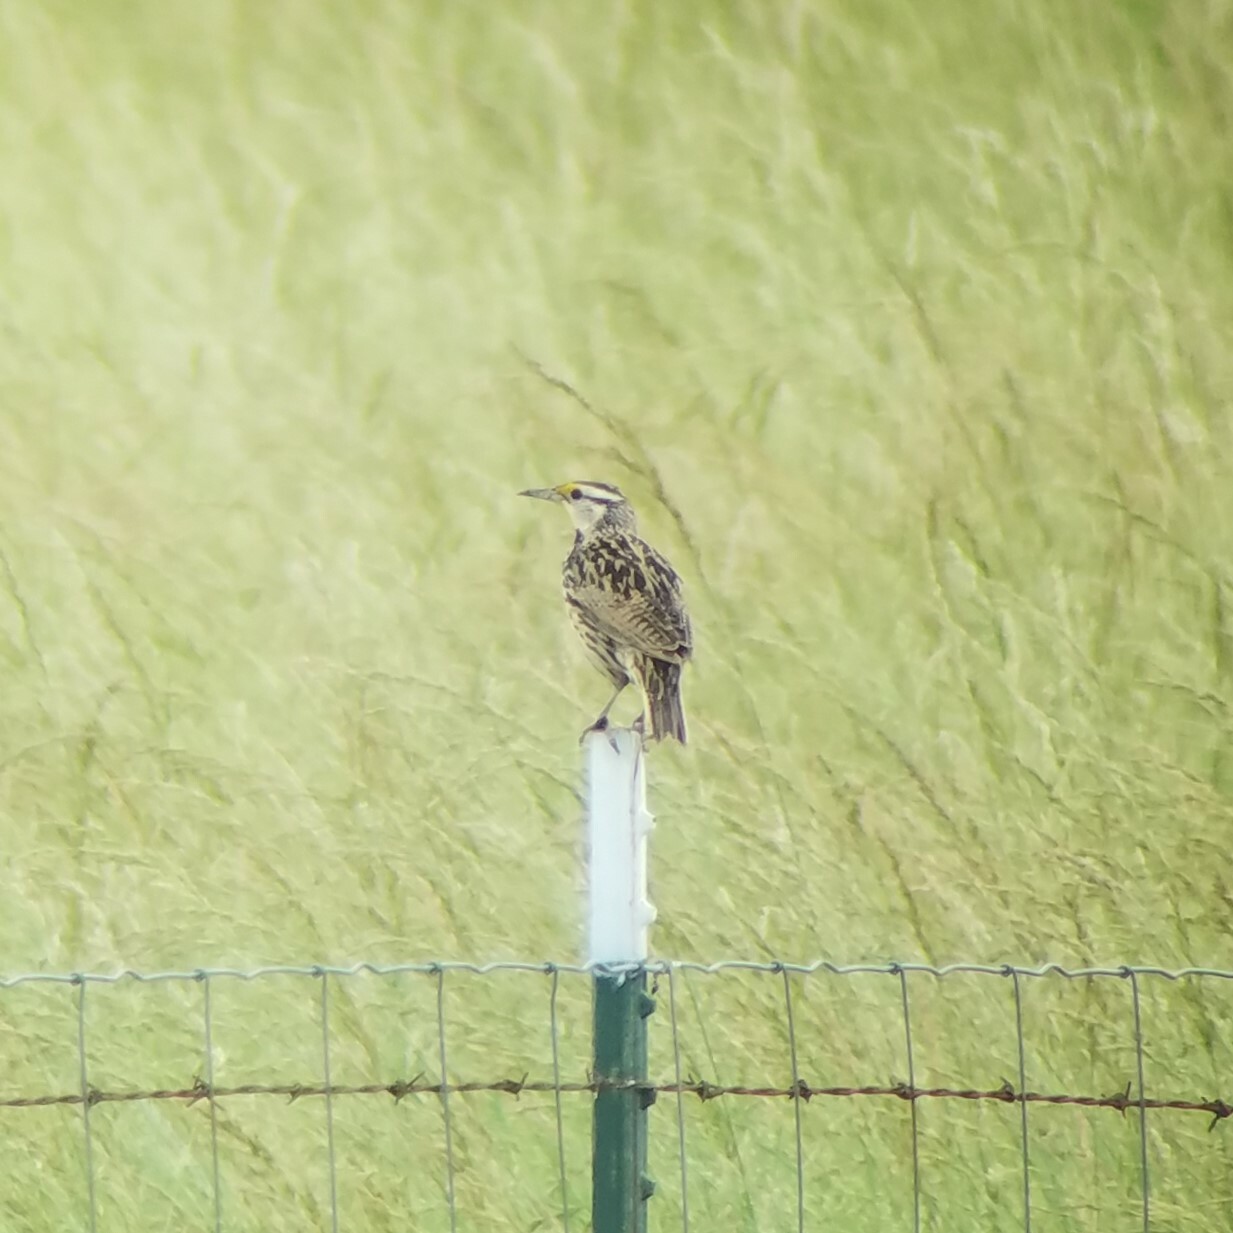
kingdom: Animalia
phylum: Chordata
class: Aves
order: Passeriformes
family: Icteridae
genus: Sturnella
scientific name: Sturnella magna
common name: Eastern meadowlark
